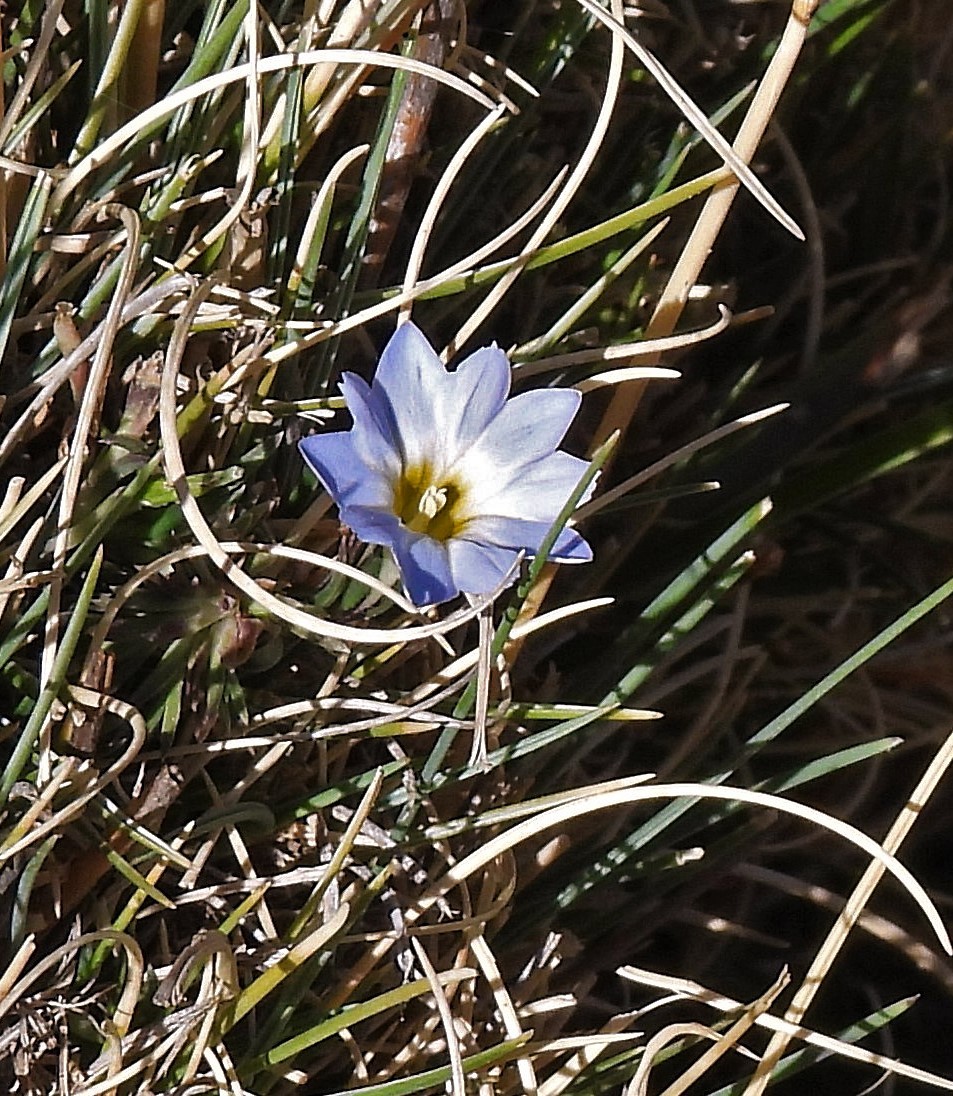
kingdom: Plantae
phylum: Tracheophyta
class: Magnoliopsida
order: Gentianales
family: Gentianaceae
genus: Gentiana
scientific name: Gentiana sedifolia
